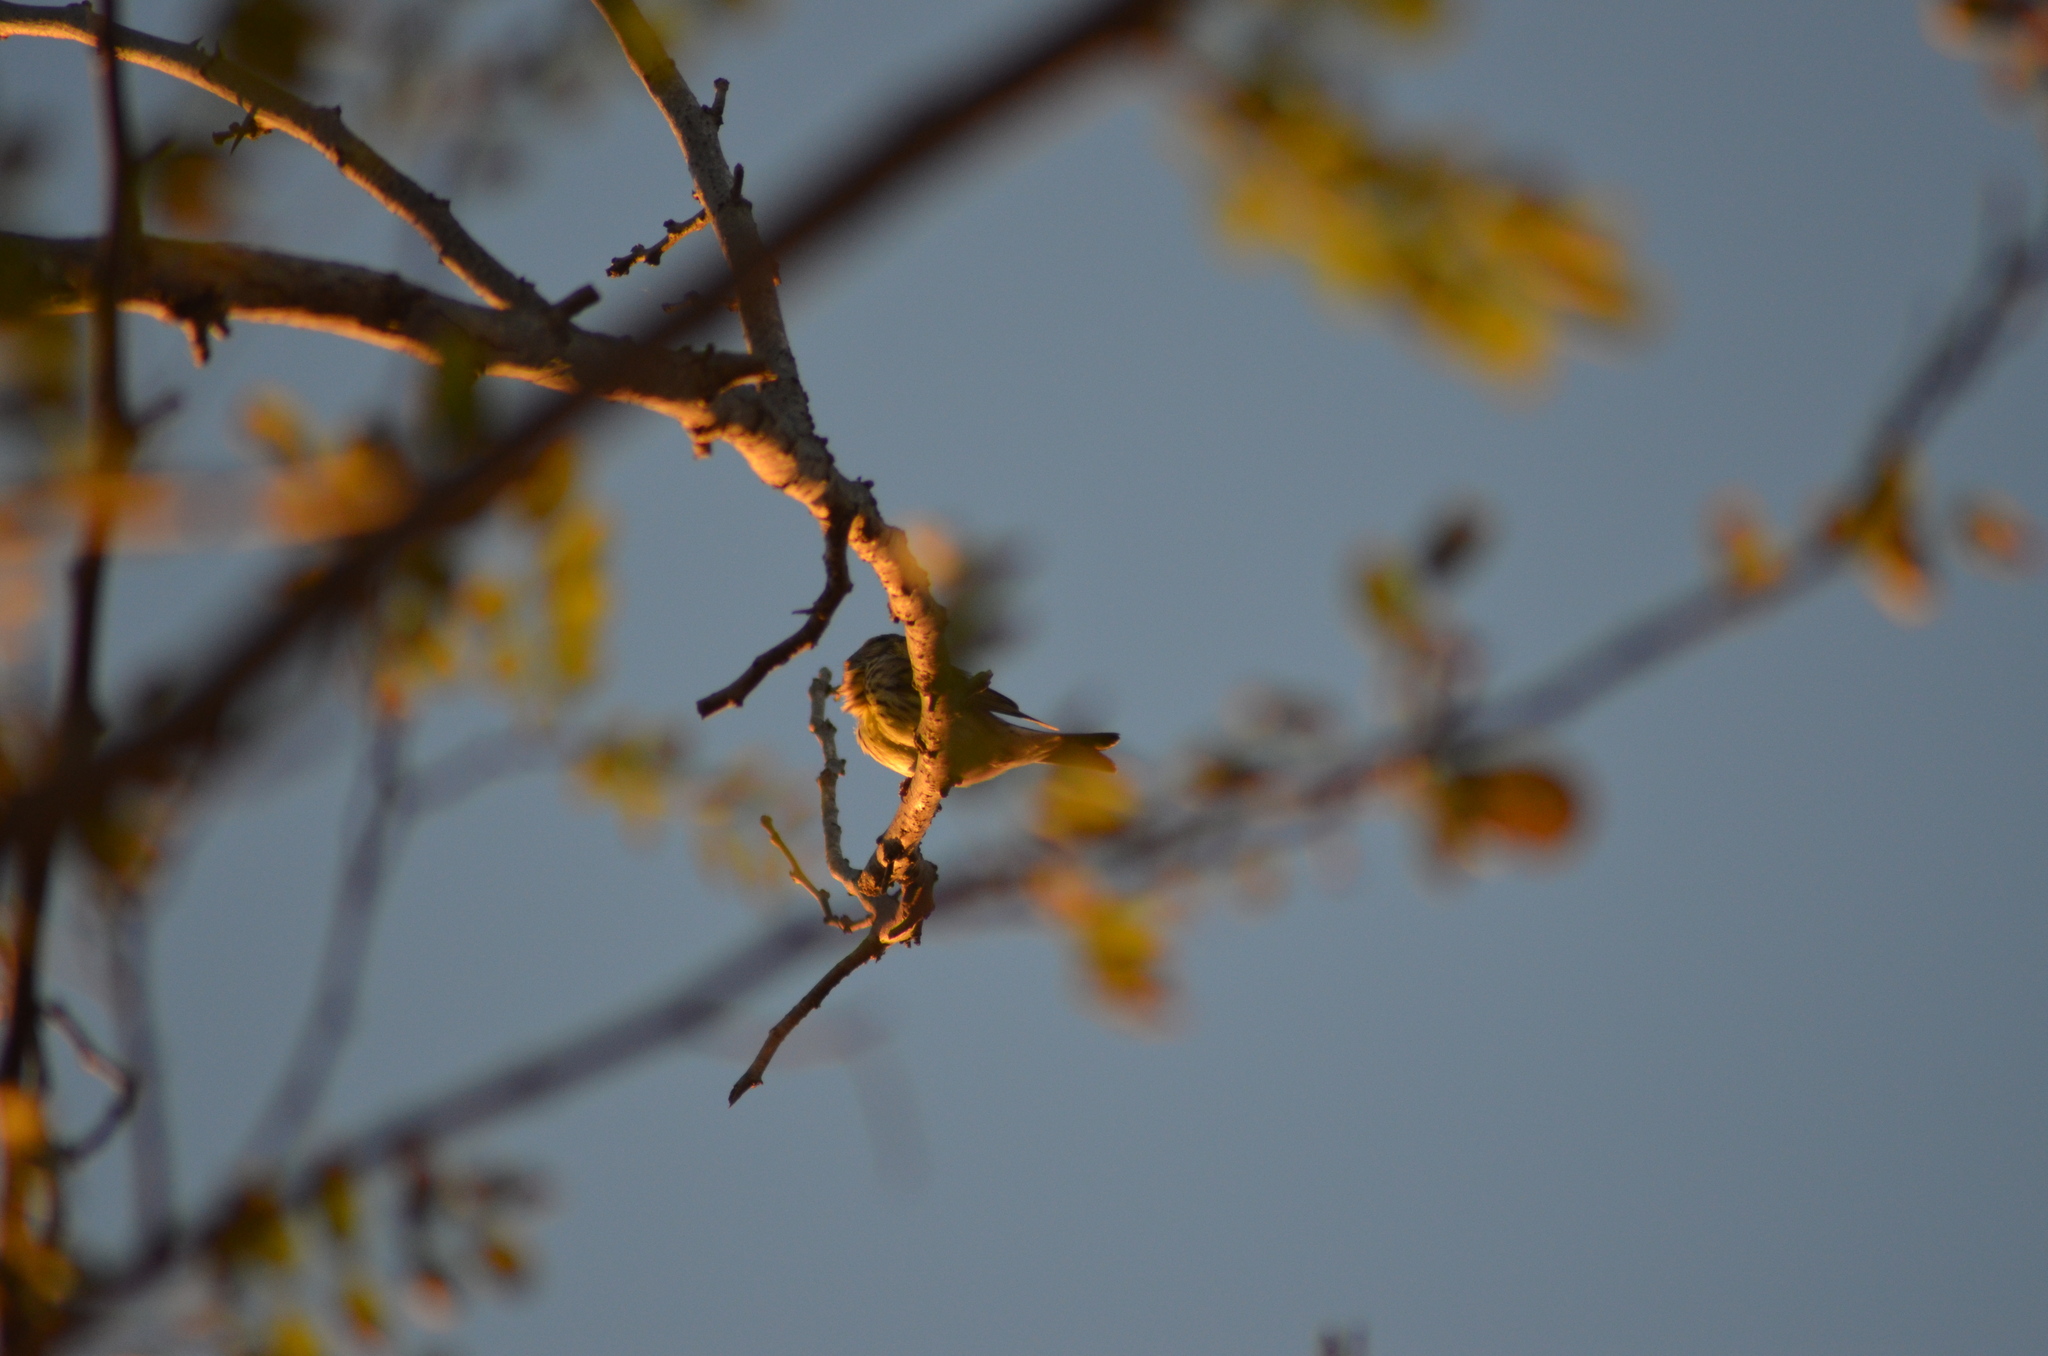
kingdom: Animalia
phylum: Chordata
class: Aves
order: Passeriformes
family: Fringillidae
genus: Serinus
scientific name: Serinus serinus
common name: European serin
